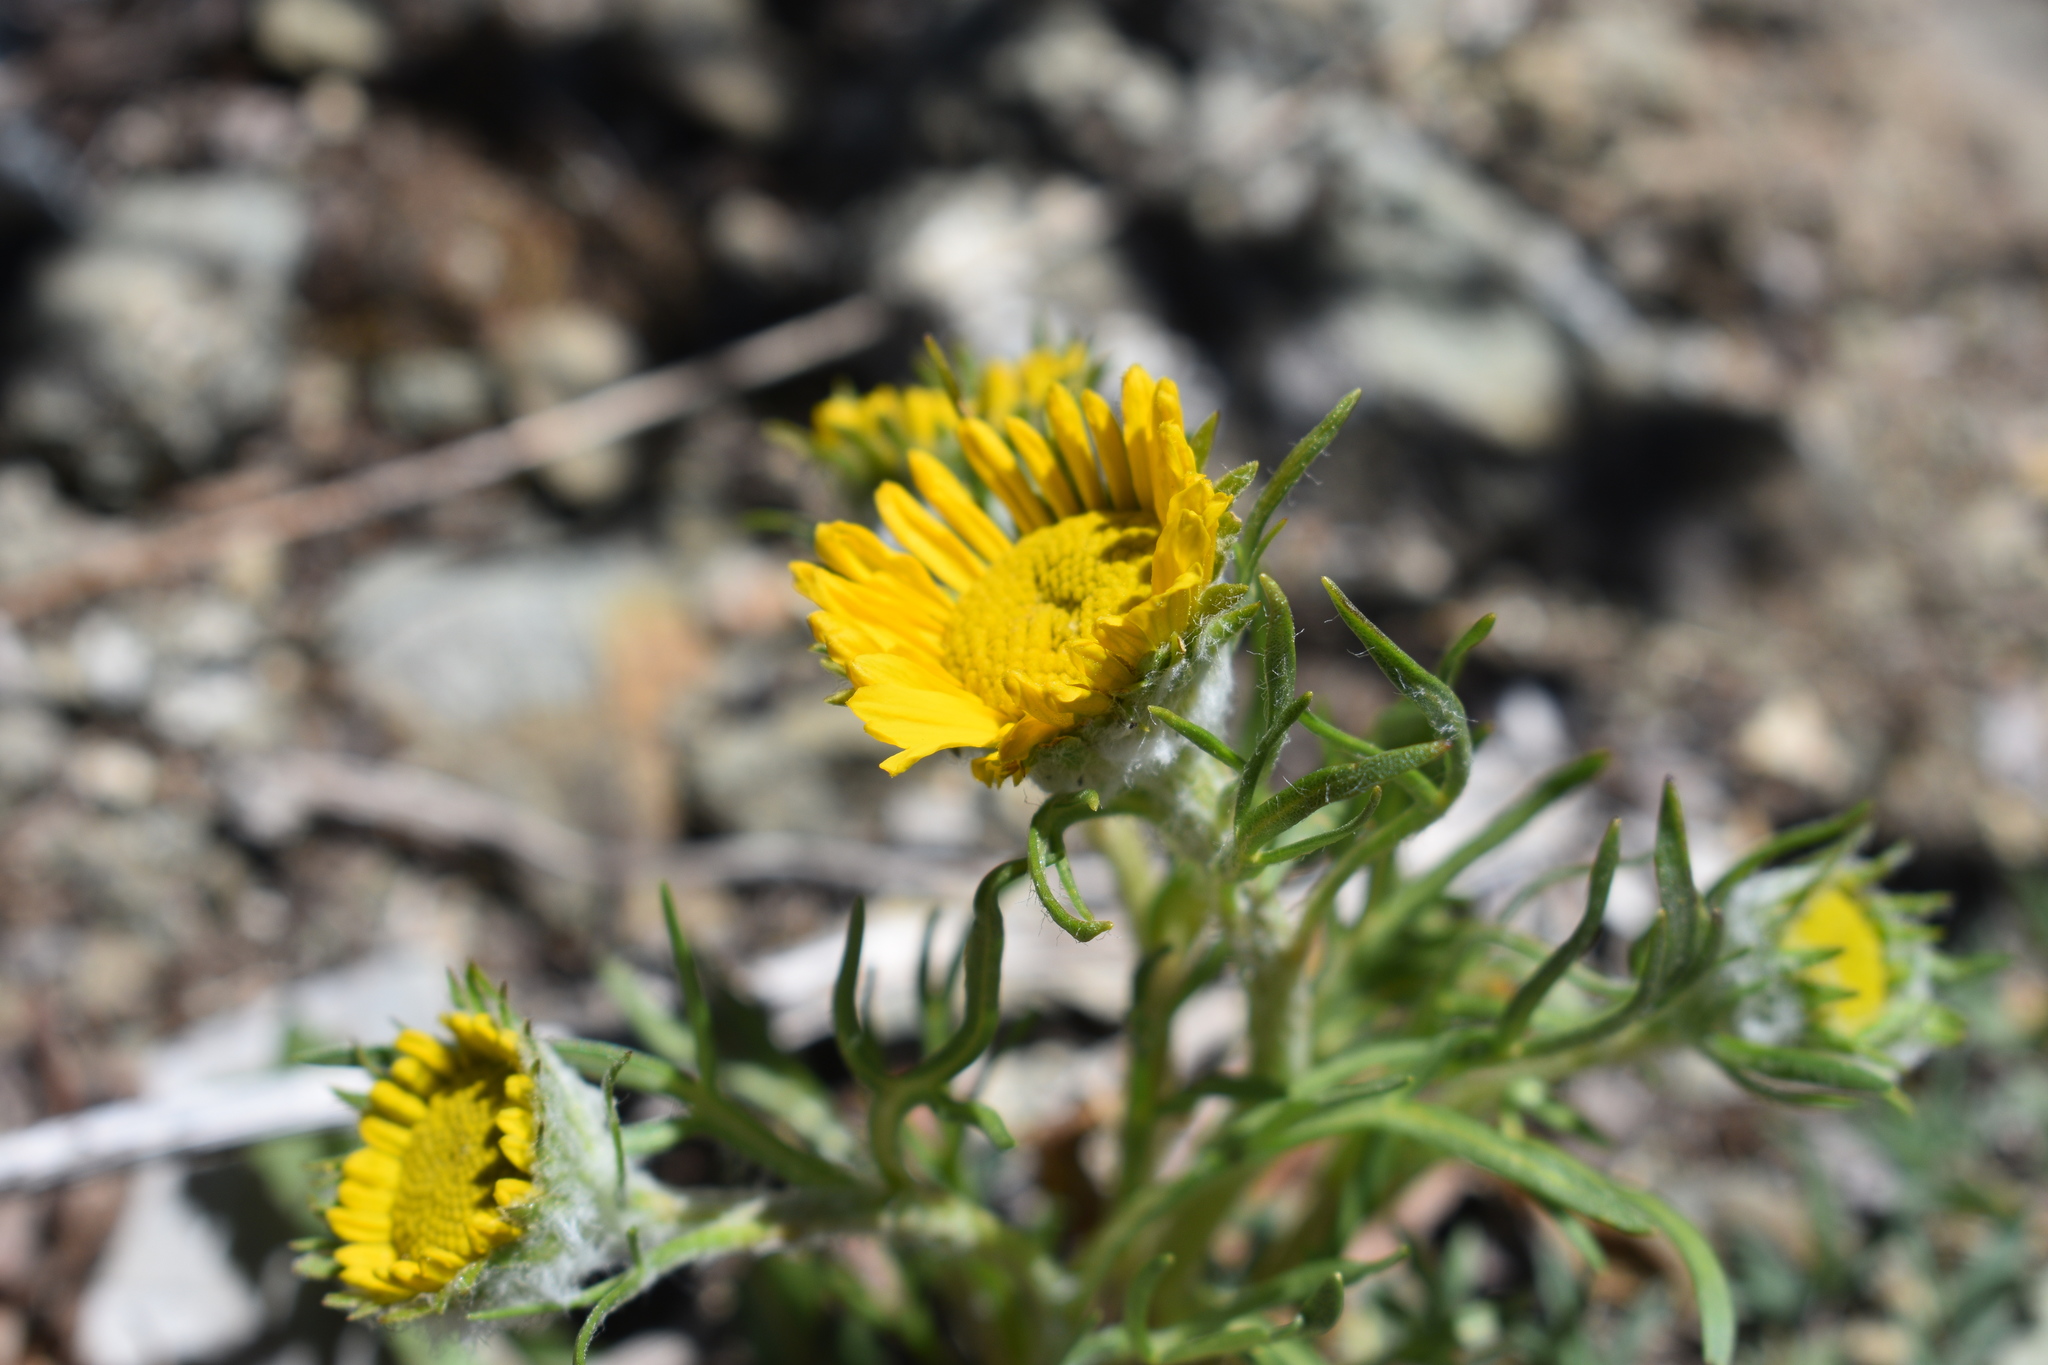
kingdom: Plantae
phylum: Tracheophyta
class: Magnoliopsida
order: Asterales
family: Asteraceae
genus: Hymenoxys
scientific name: Hymenoxys grandiflora
